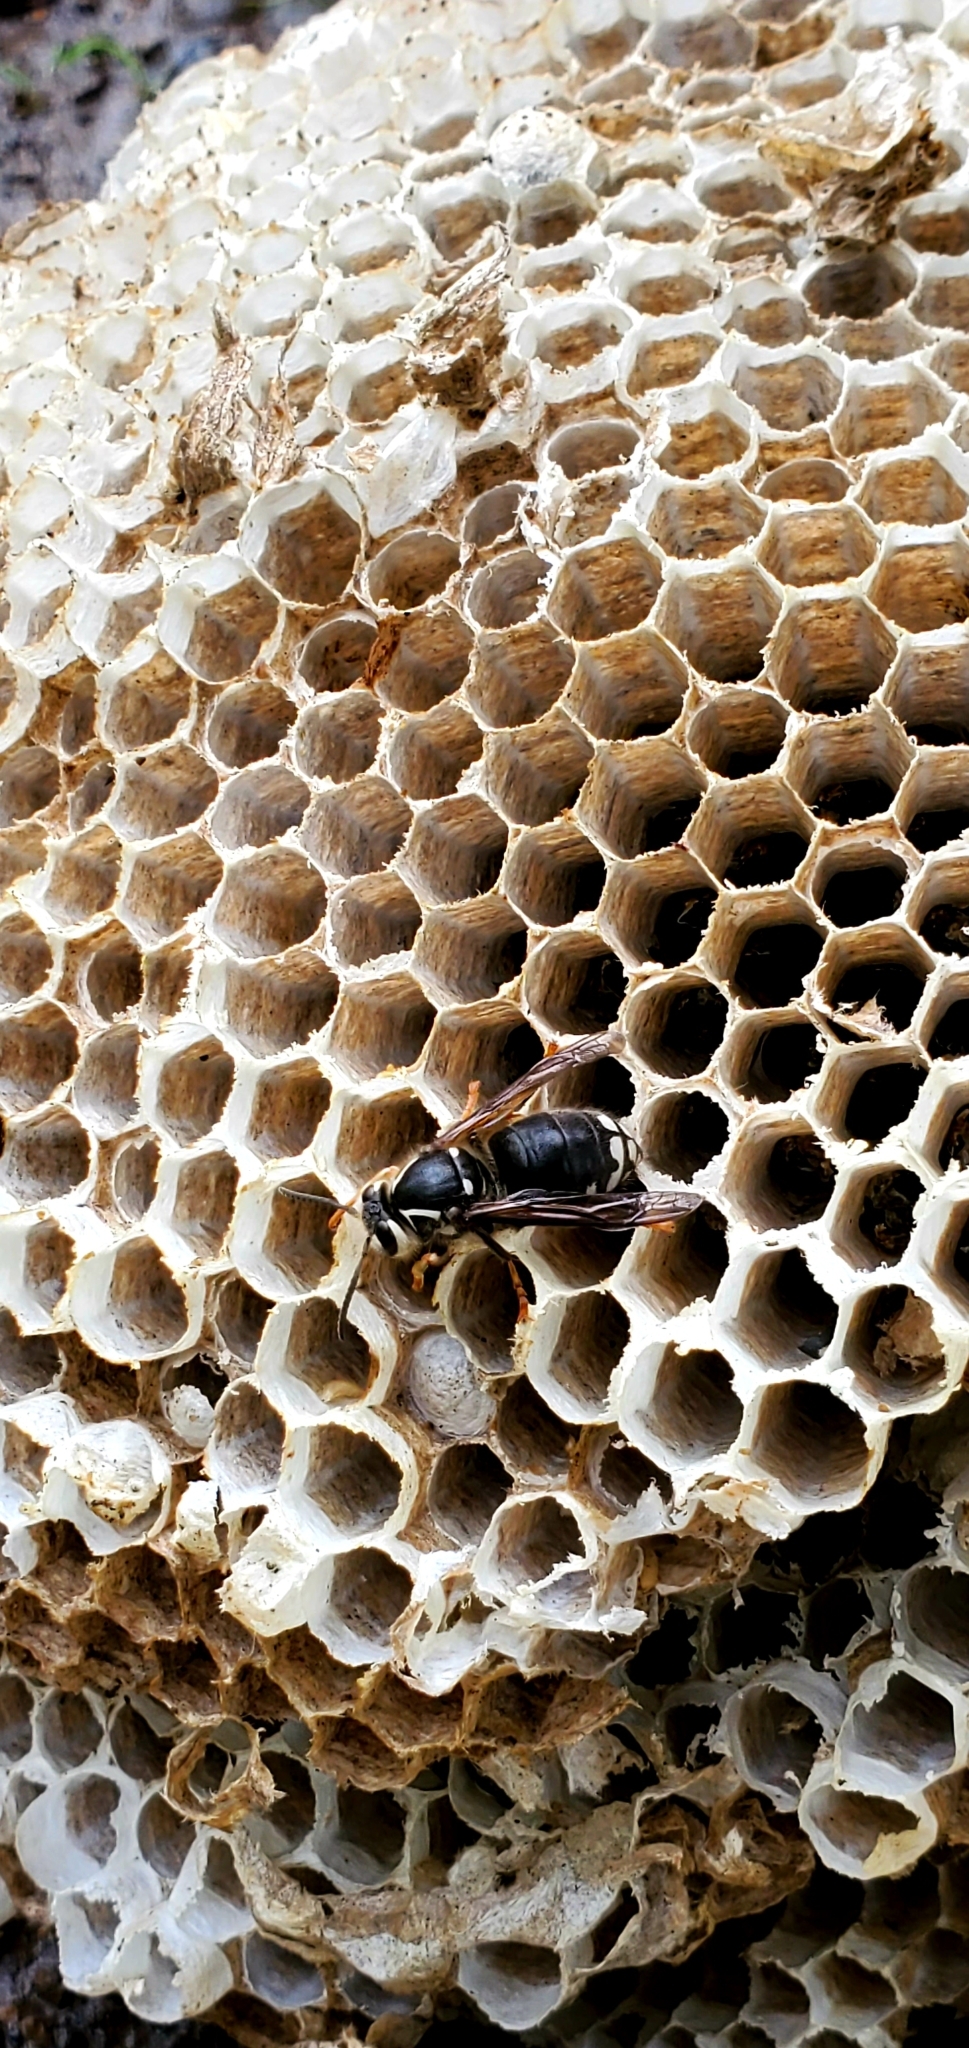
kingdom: Animalia
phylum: Arthropoda
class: Insecta
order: Hymenoptera
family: Vespidae
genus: Dolichovespula
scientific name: Dolichovespula maculata
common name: Bald-faced hornet
